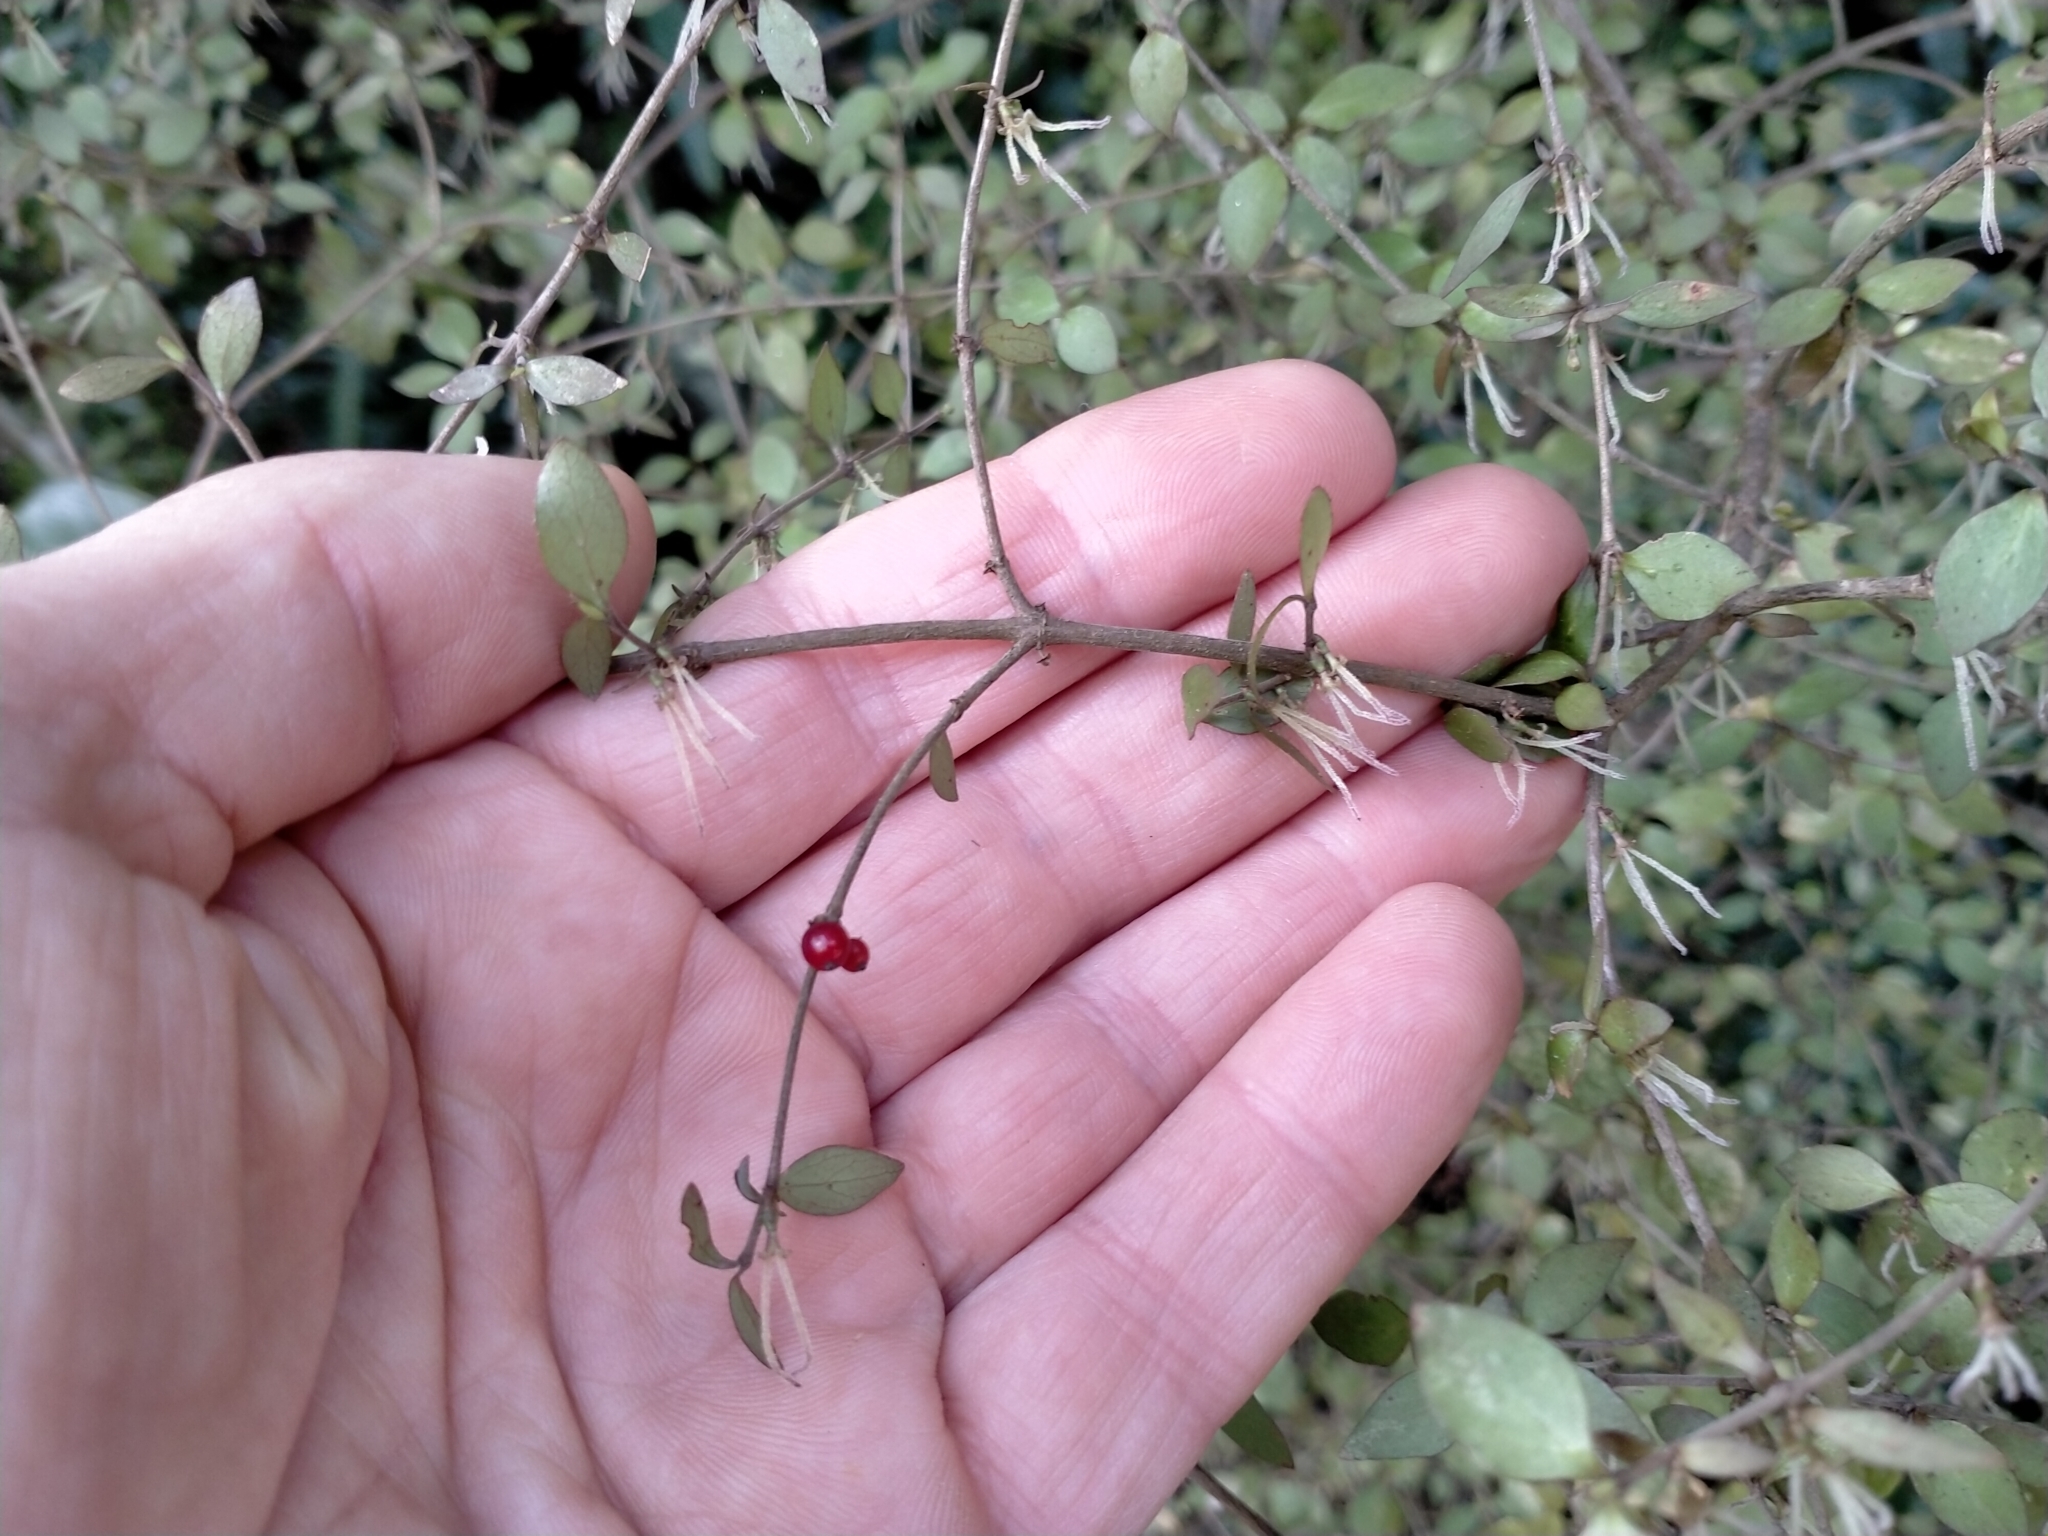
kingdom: Plantae
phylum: Tracheophyta
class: Magnoliopsida
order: Gentianales
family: Rubiaceae
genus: Coprosma
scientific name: Coprosma rhamnoides
